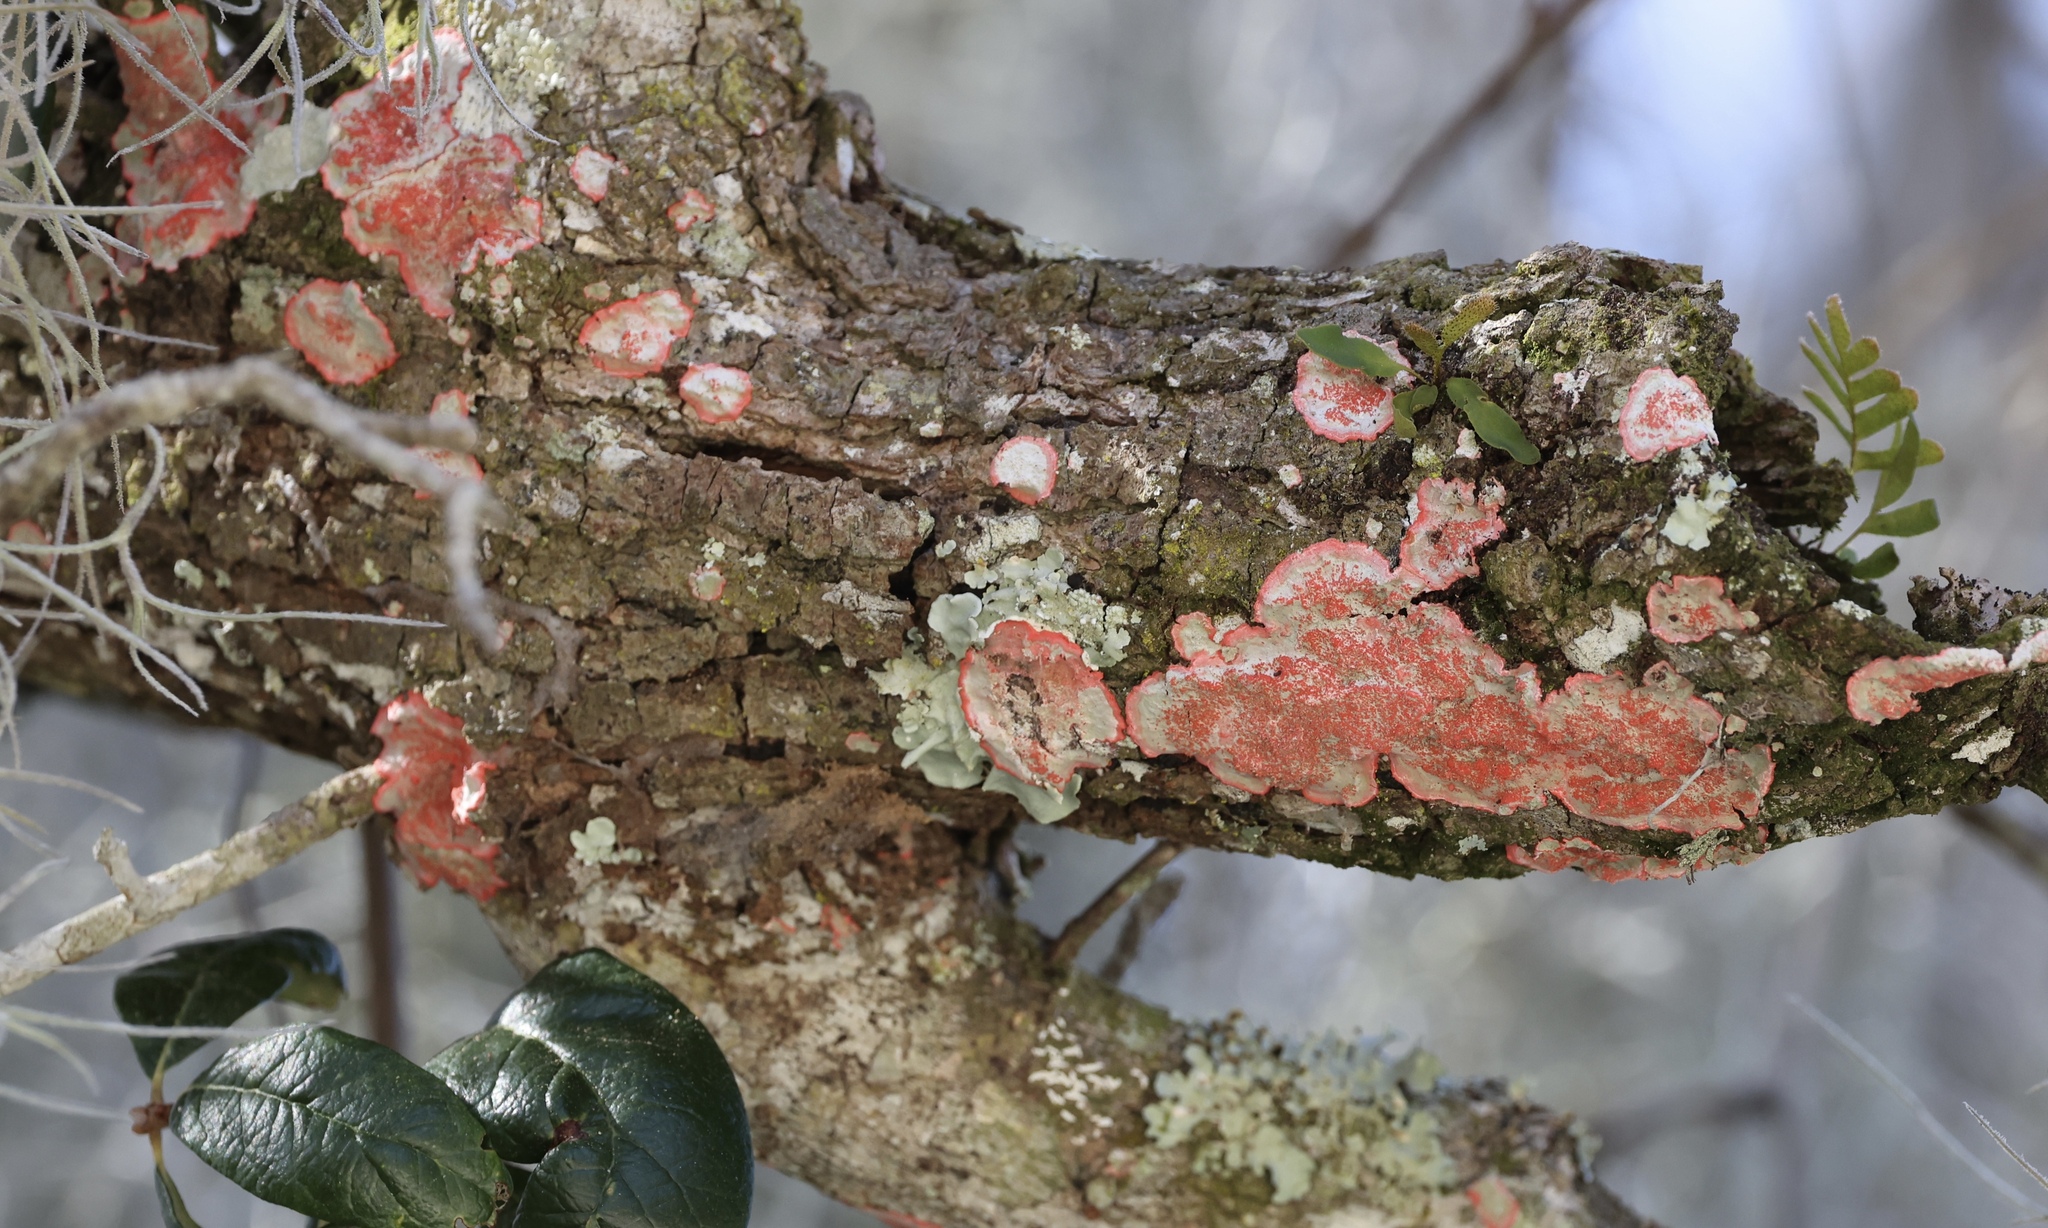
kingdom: Fungi
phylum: Ascomycota
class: Arthoniomycetes
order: Arthoniales
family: Arthoniaceae
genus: Herpothallon
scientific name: Herpothallon rubrocinctum
